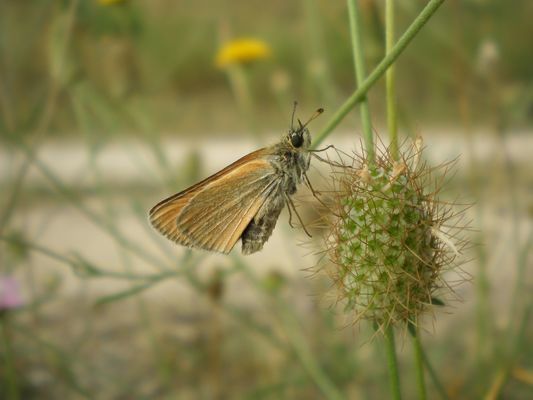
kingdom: Animalia
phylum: Arthropoda
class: Insecta
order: Lepidoptera
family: Hesperiidae
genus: Thymelicus
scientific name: Thymelicus lineola
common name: Essex skipper
